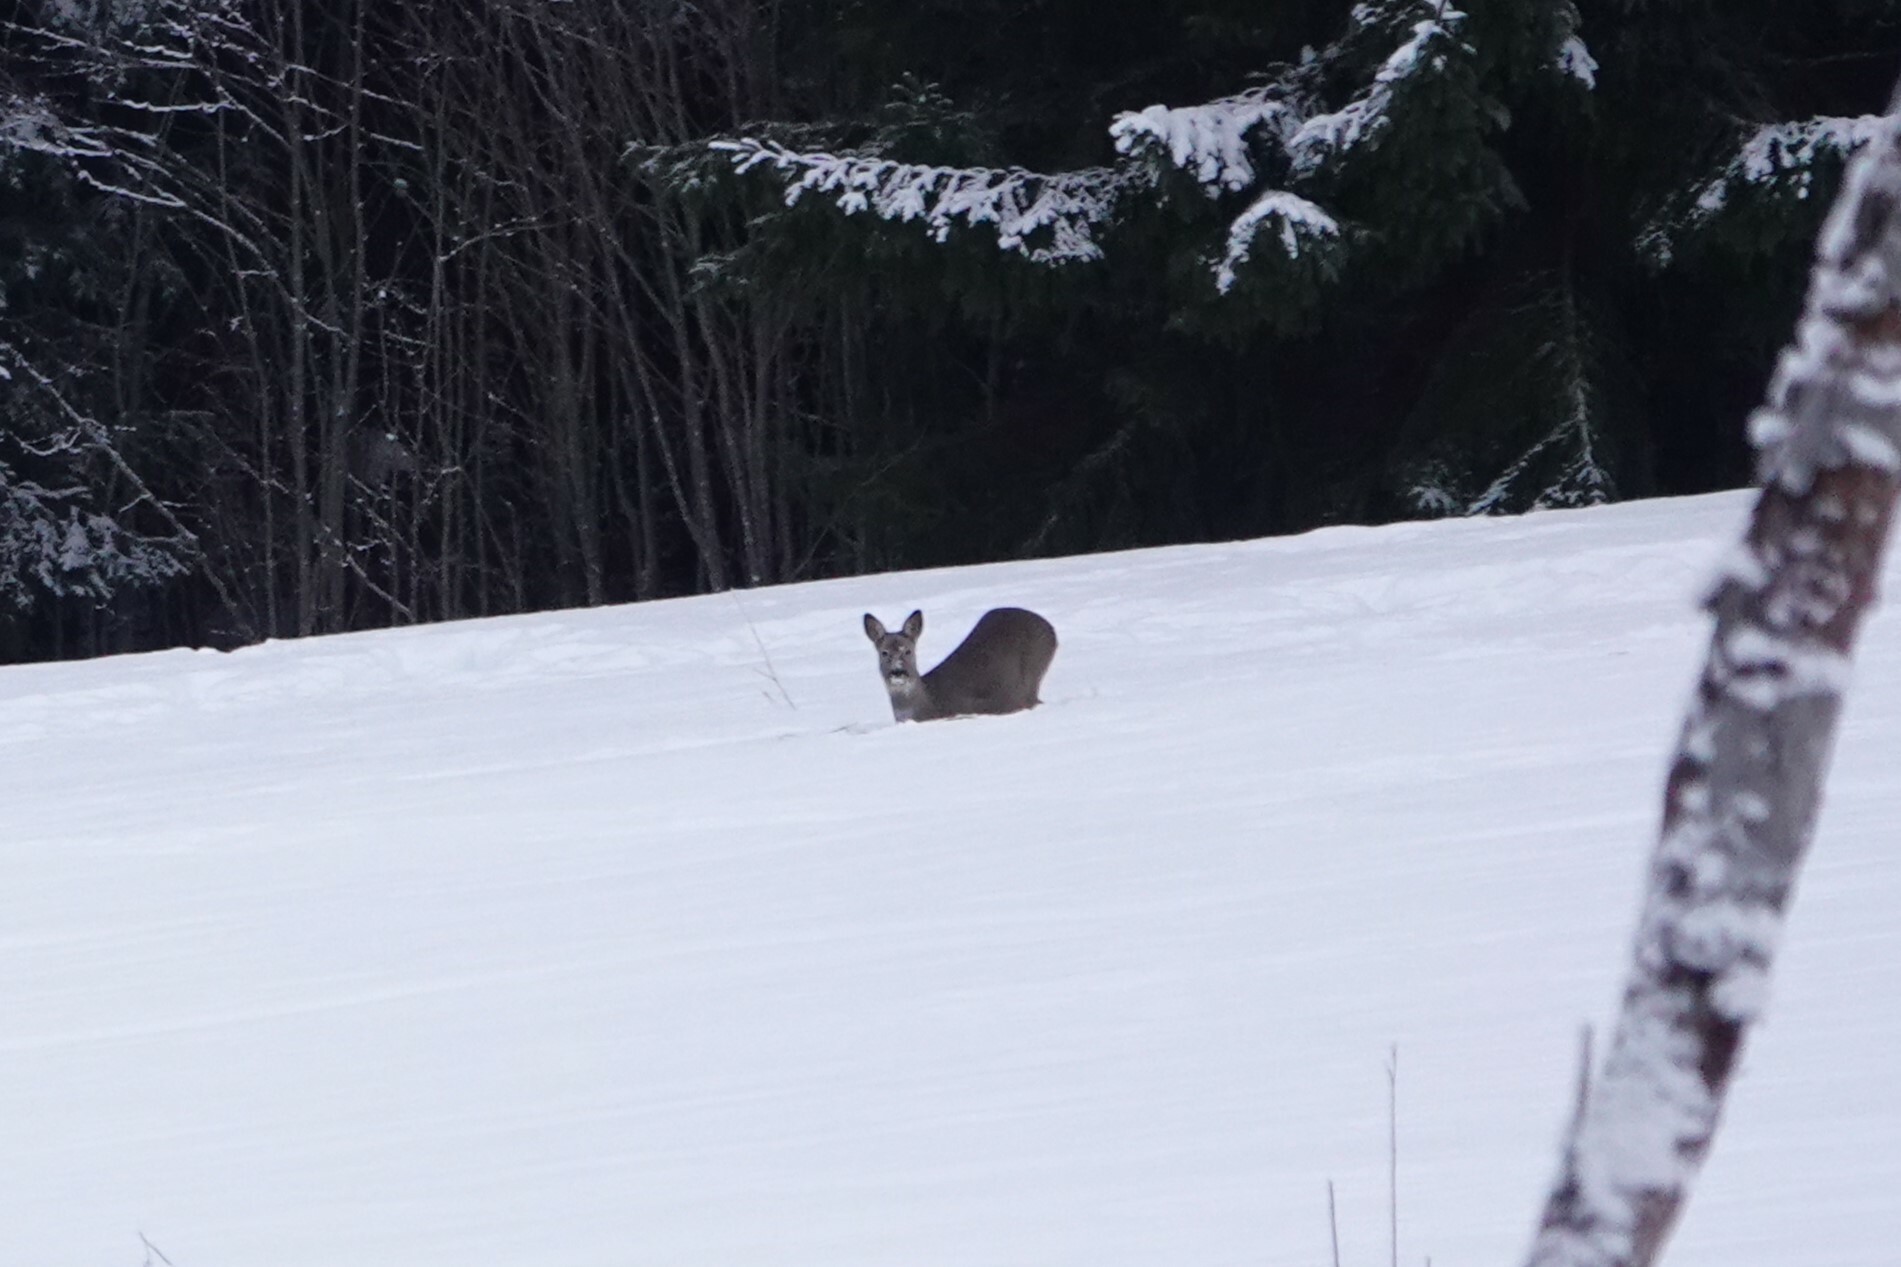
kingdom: Animalia
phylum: Chordata
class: Mammalia
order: Artiodactyla
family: Cervidae
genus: Capreolus
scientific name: Capreolus capreolus
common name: Western roe deer
